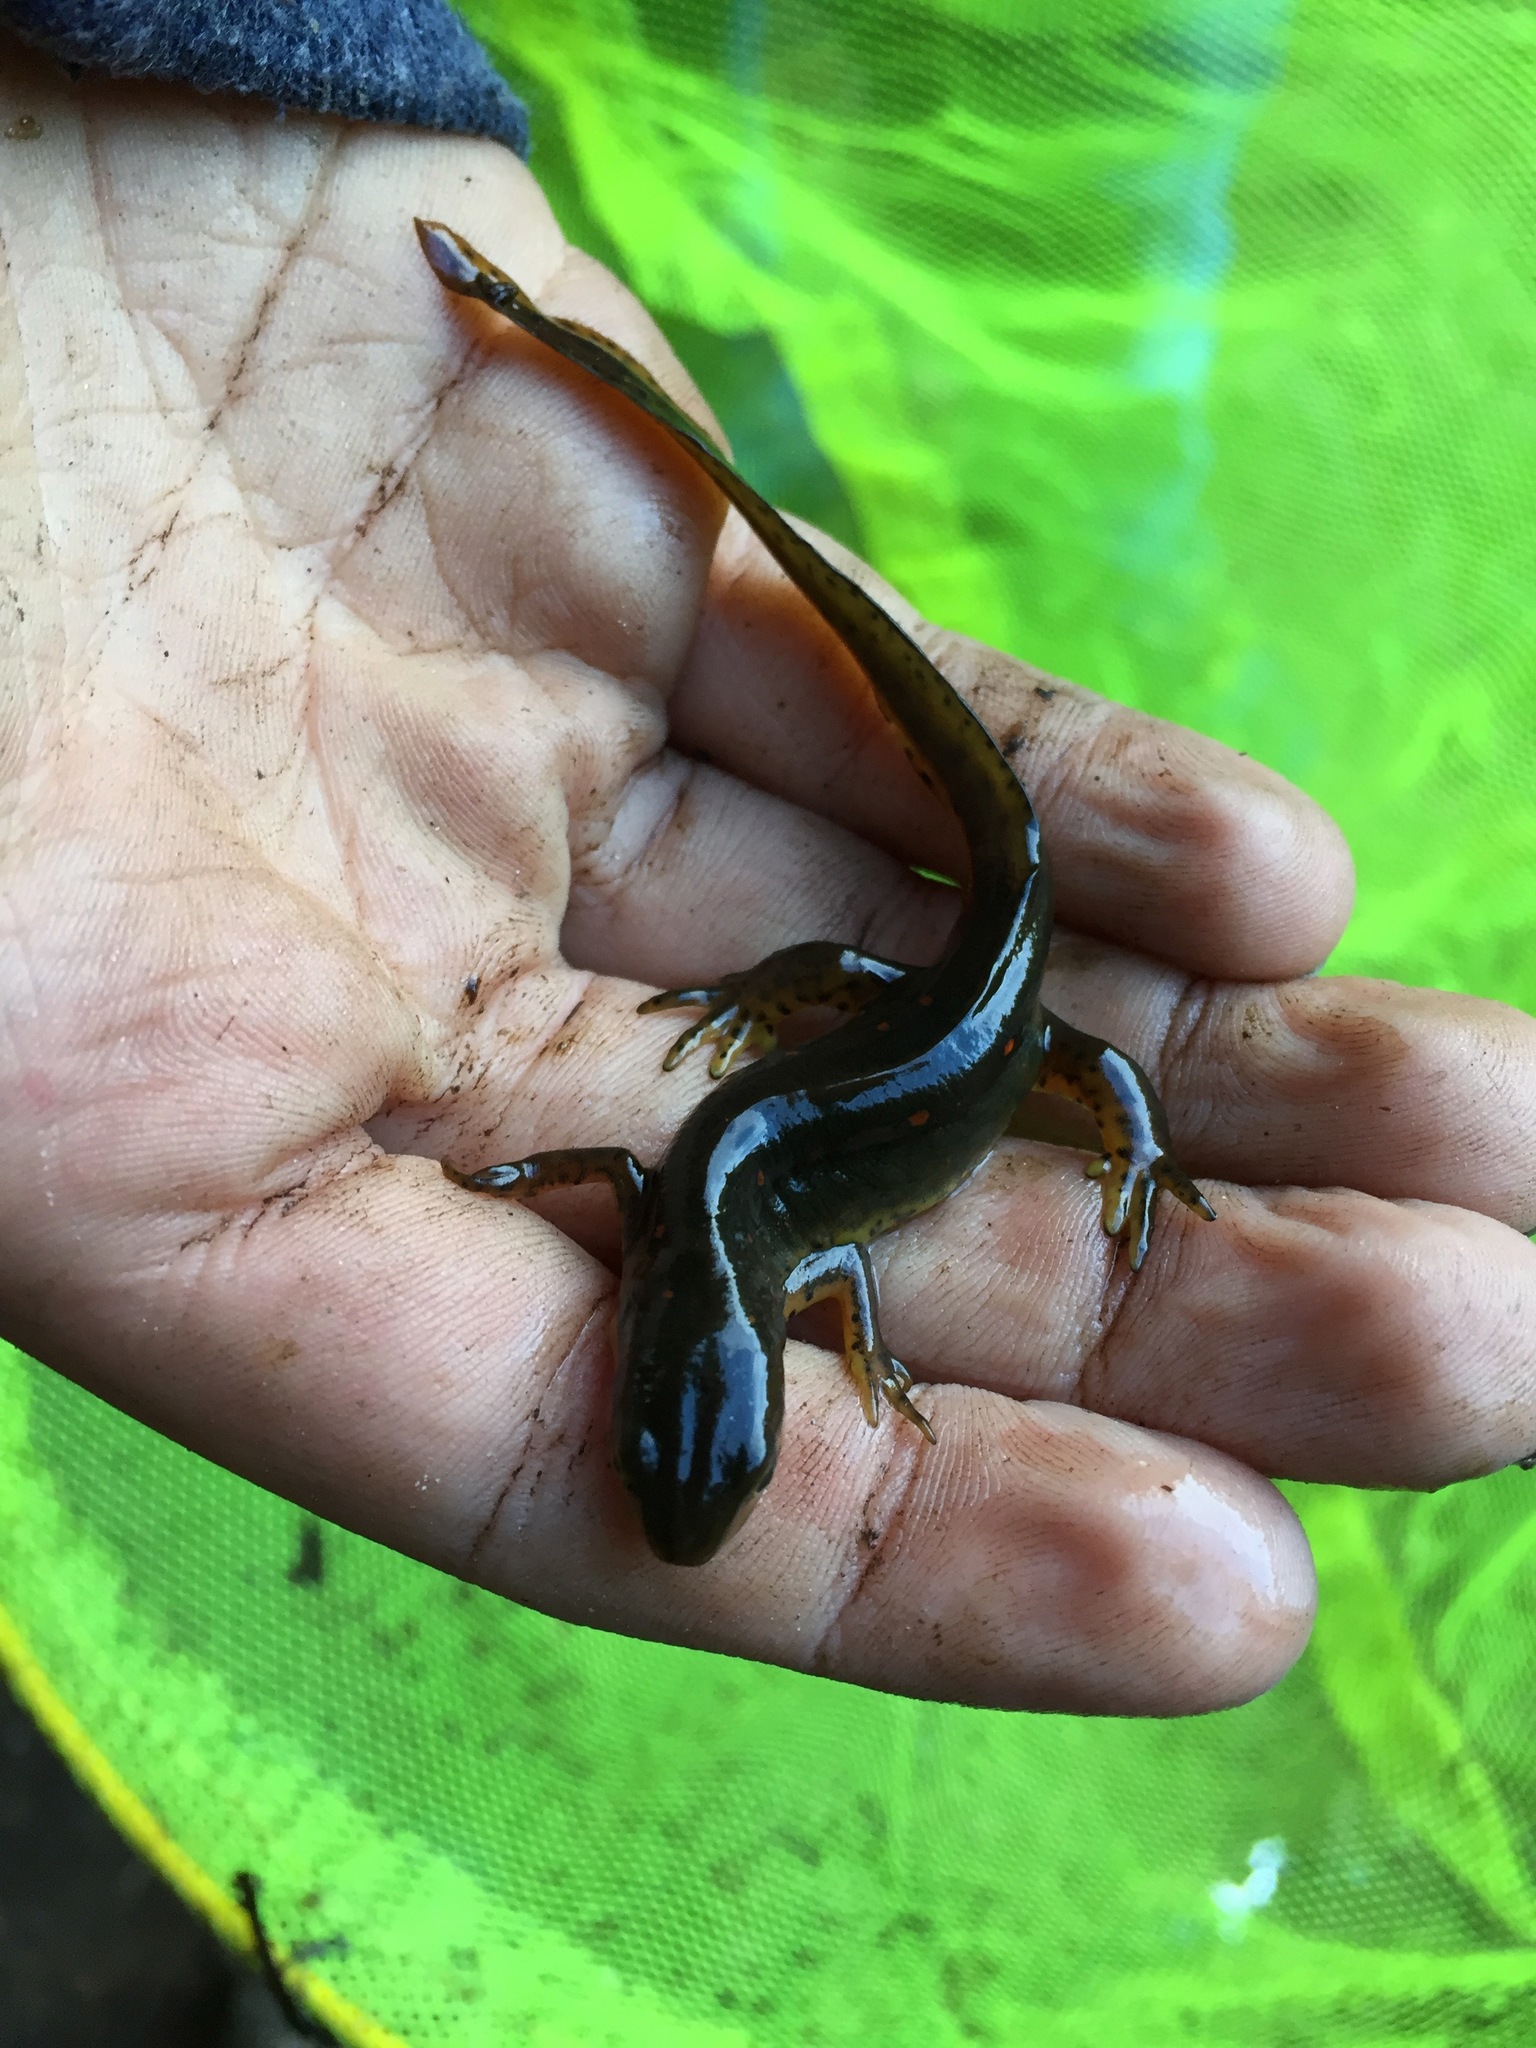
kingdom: Animalia
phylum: Chordata
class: Amphibia
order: Caudata
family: Salamandridae
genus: Notophthalmus
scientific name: Notophthalmus viridescens
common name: Eastern newt
